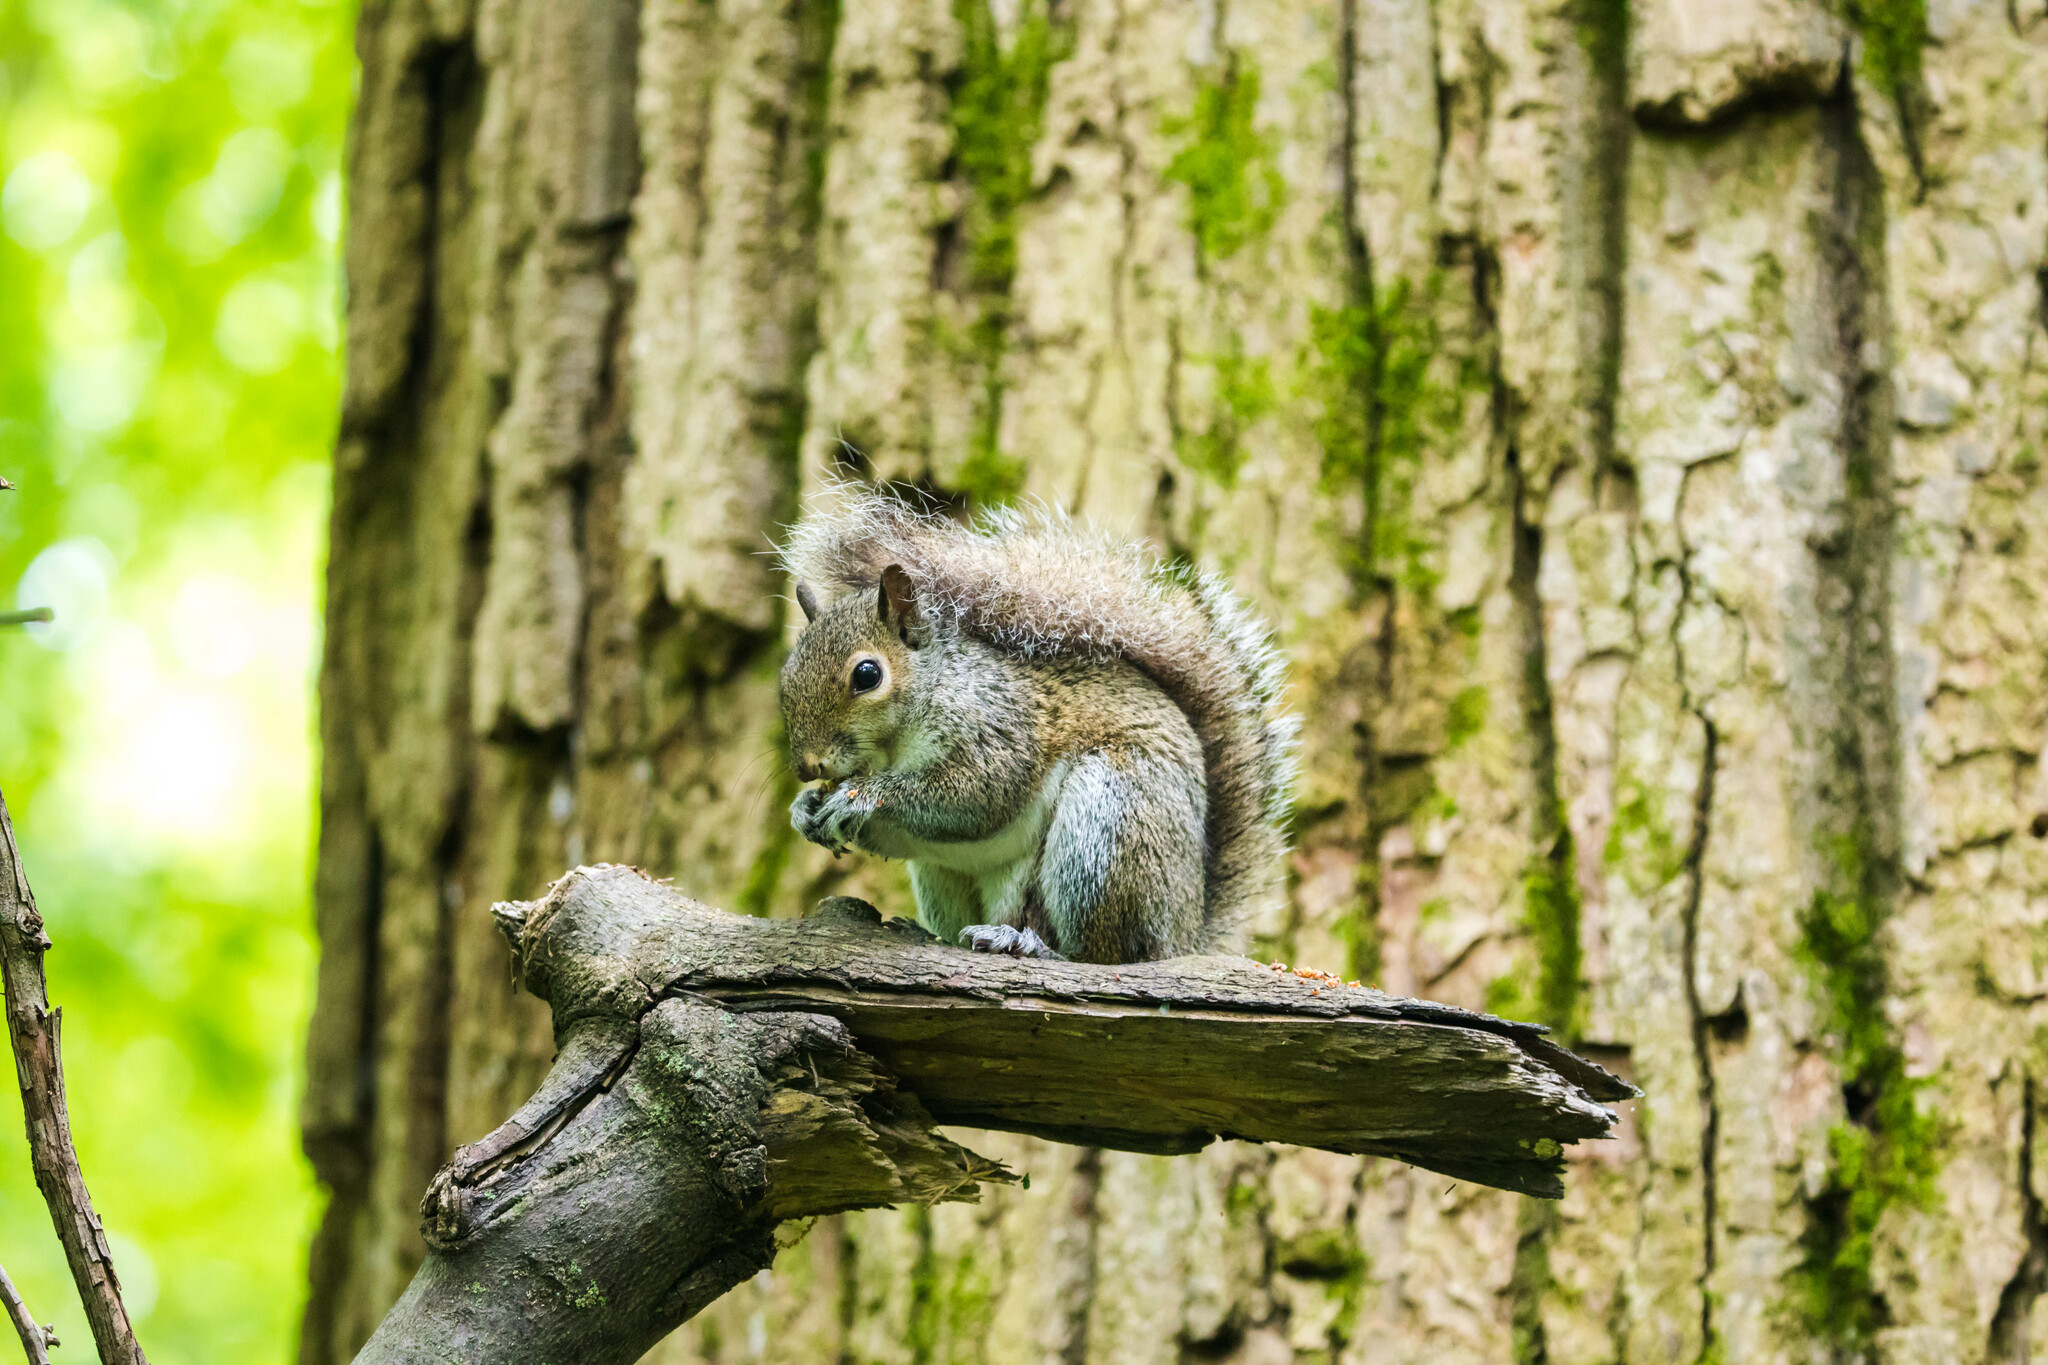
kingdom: Animalia
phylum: Chordata
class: Mammalia
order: Rodentia
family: Sciuridae
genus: Sciurus
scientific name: Sciurus carolinensis
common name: Eastern gray squirrel
